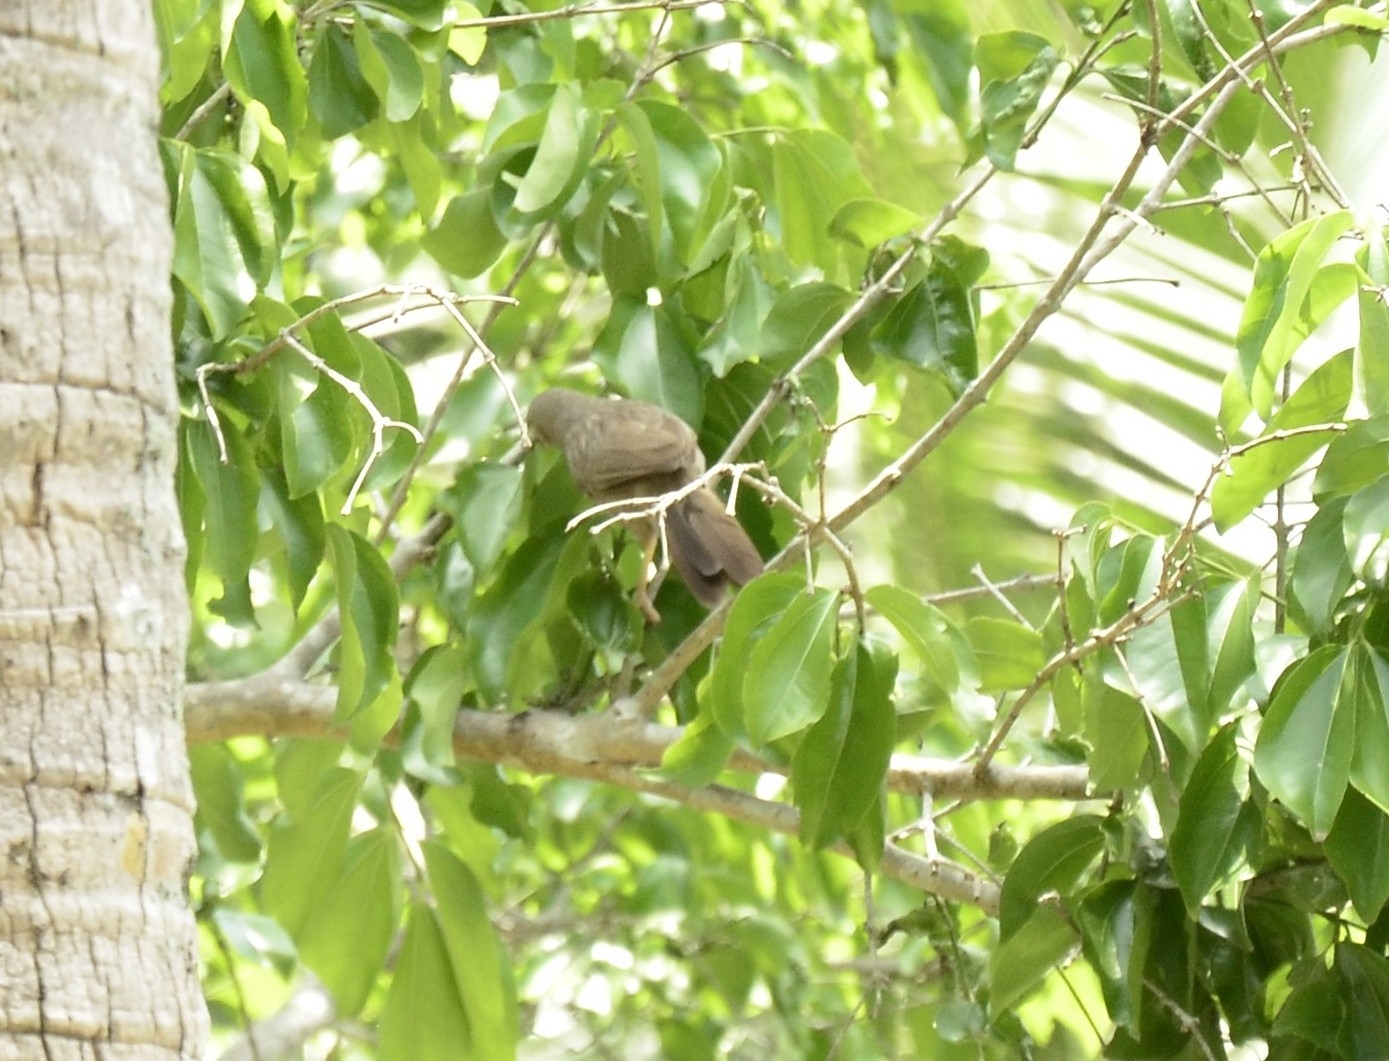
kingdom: Animalia
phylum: Chordata
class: Aves
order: Passeriformes
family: Leiothrichidae
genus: Turdoides
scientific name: Turdoides striata
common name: Jungle babbler
